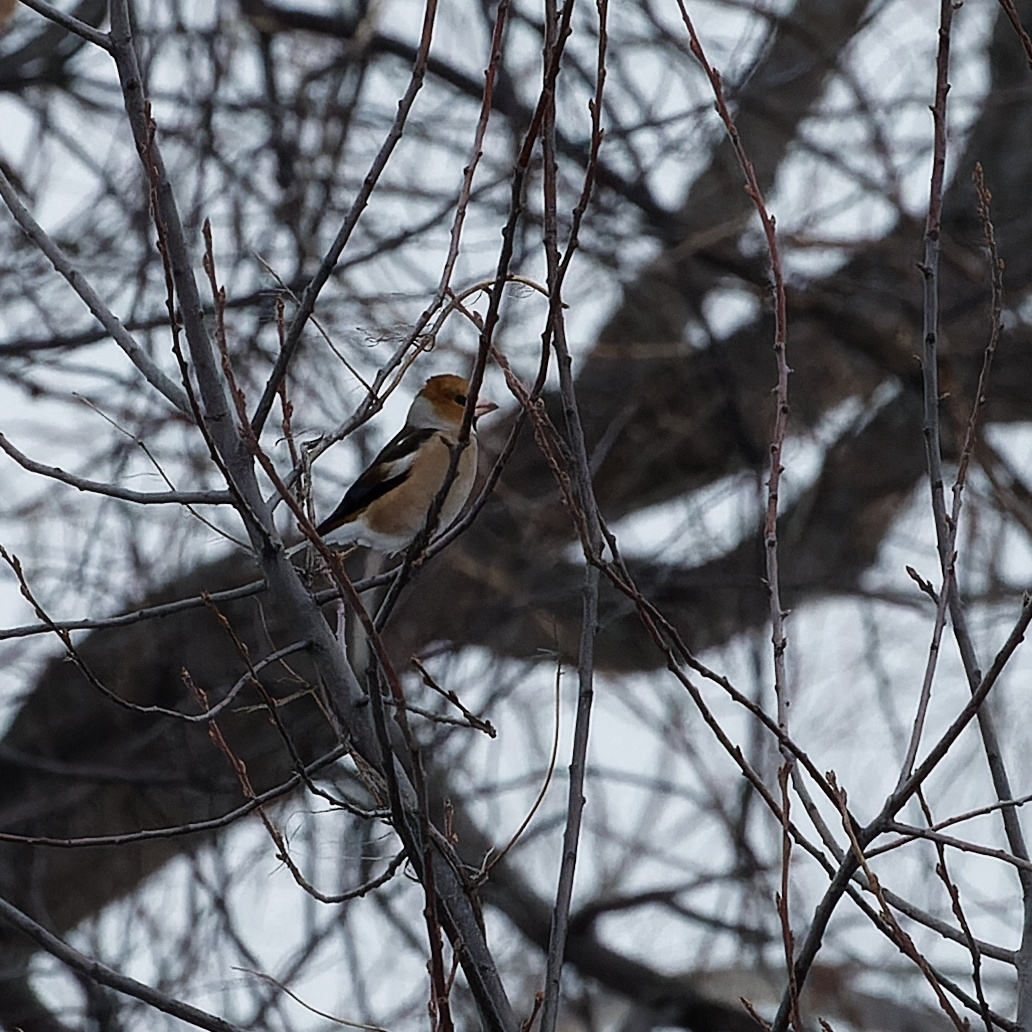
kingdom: Animalia
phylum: Chordata
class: Aves
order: Passeriformes
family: Fringillidae
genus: Coccothraustes
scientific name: Coccothraustes coccothraustes
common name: Hawfinch
